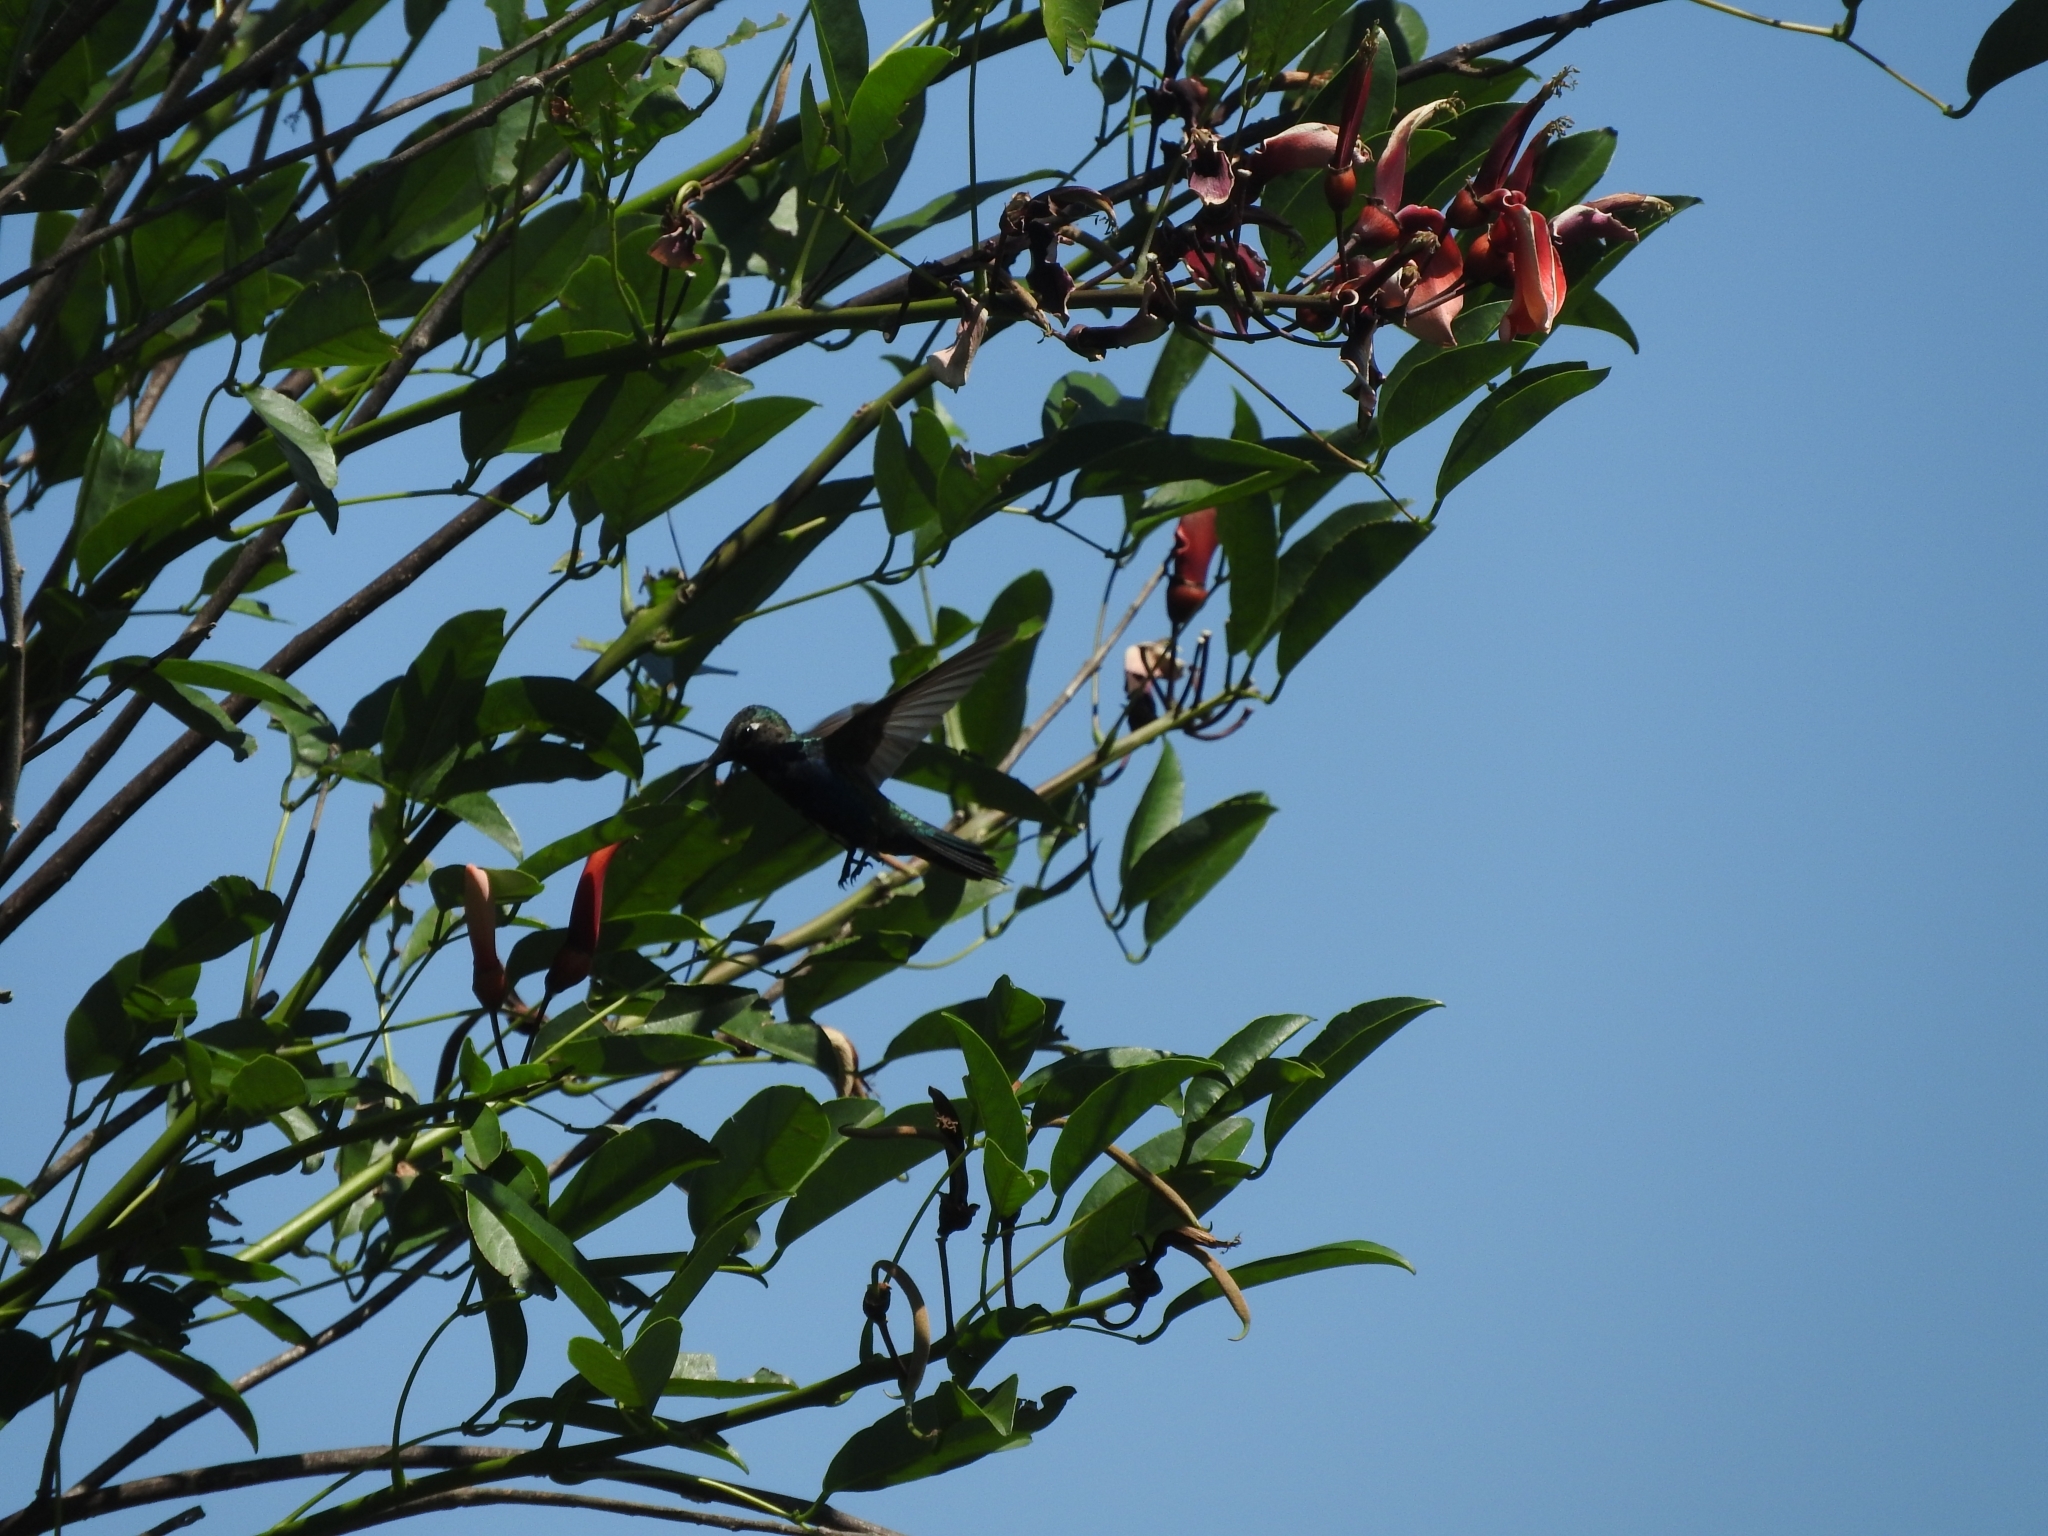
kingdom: Animalia
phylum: Chordata
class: Aves
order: Apodiformes
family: Trochilidae
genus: Heliomaster
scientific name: Heliomaster furcifer
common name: Blue-tufted starthroat
